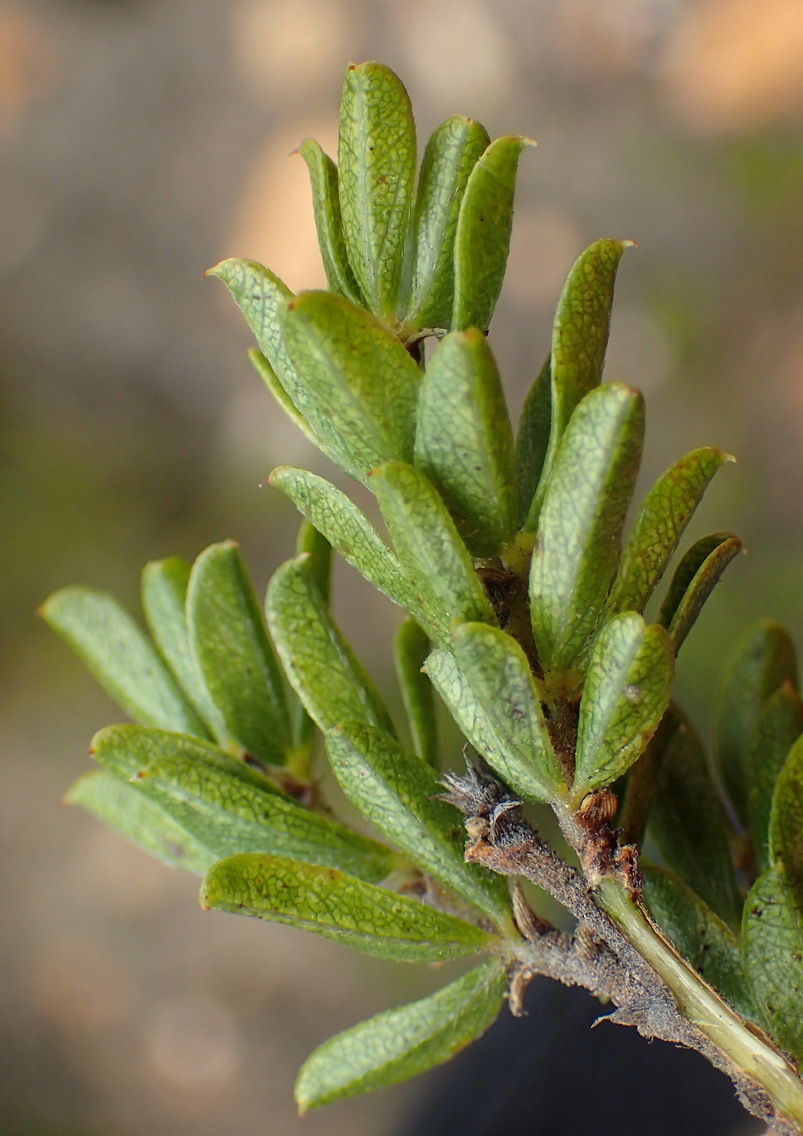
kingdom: Plantae
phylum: Tracheophyta
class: Magnoliopsida
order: Fabales
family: Fabaceae
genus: Psoralea
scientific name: Psoralea heterosepala
